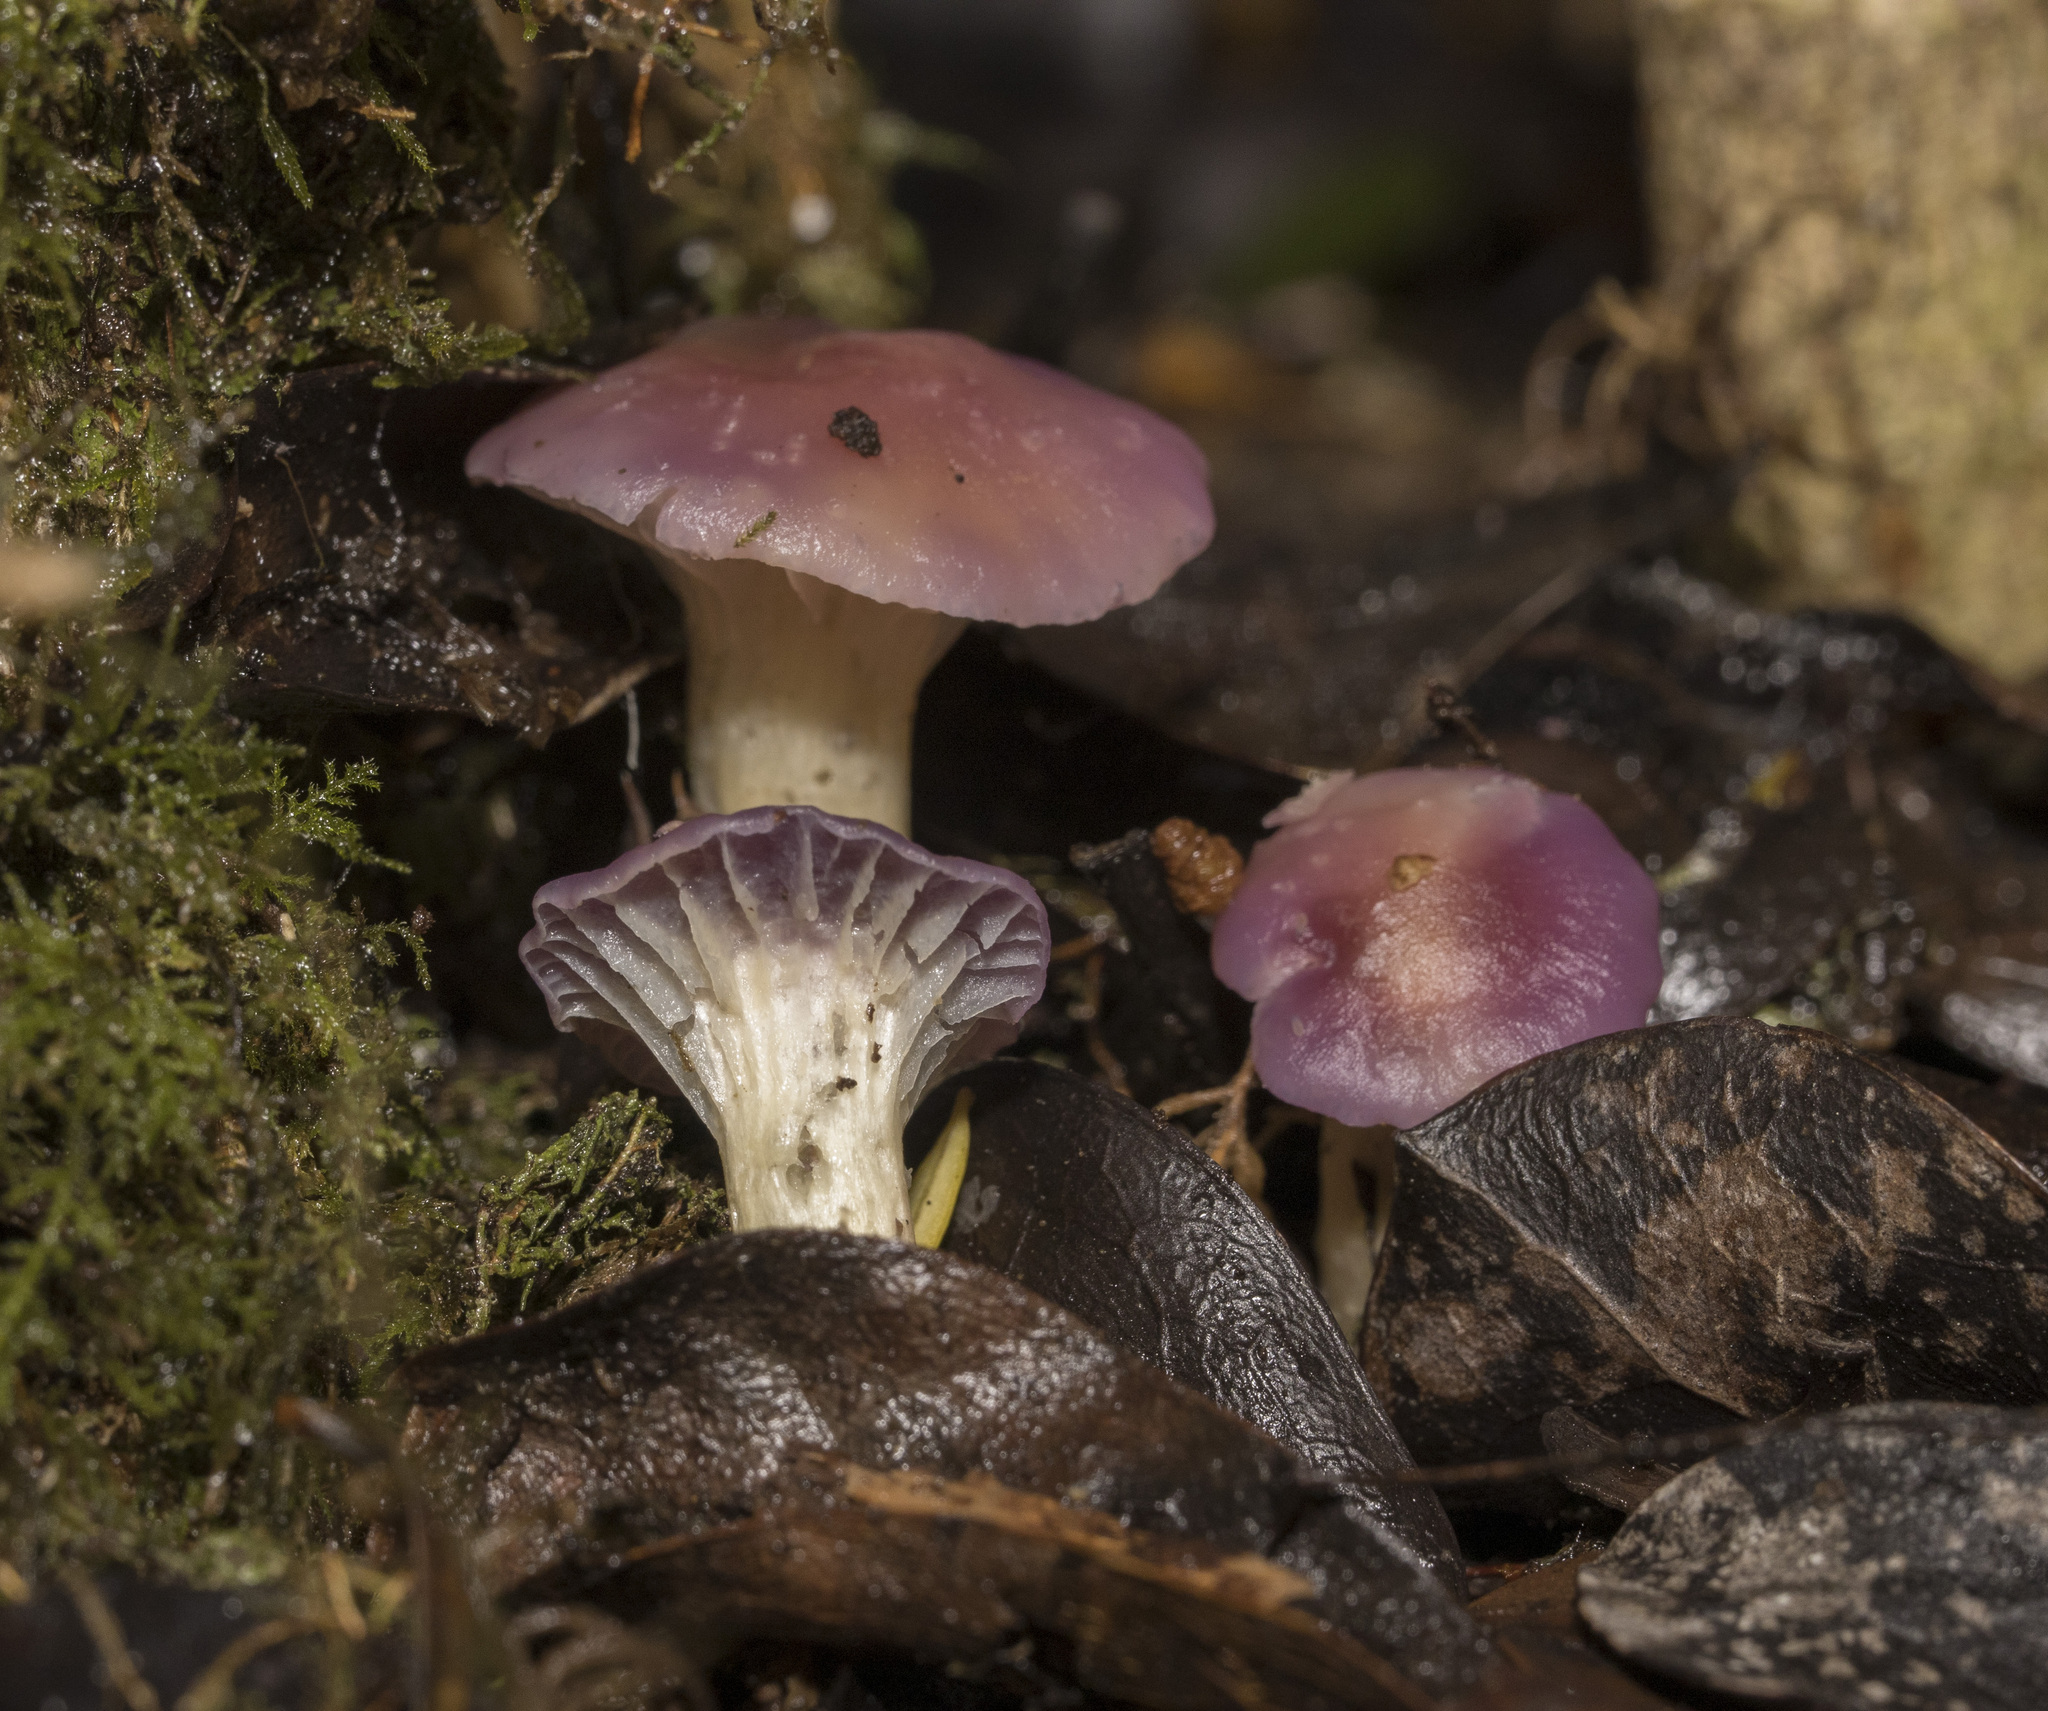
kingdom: Fungi
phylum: Basidiomycota
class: Agaricomycetes
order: Agaricales
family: Hygrophoraceae
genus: Cuphophyllus
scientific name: Cuphophyllus adonis
